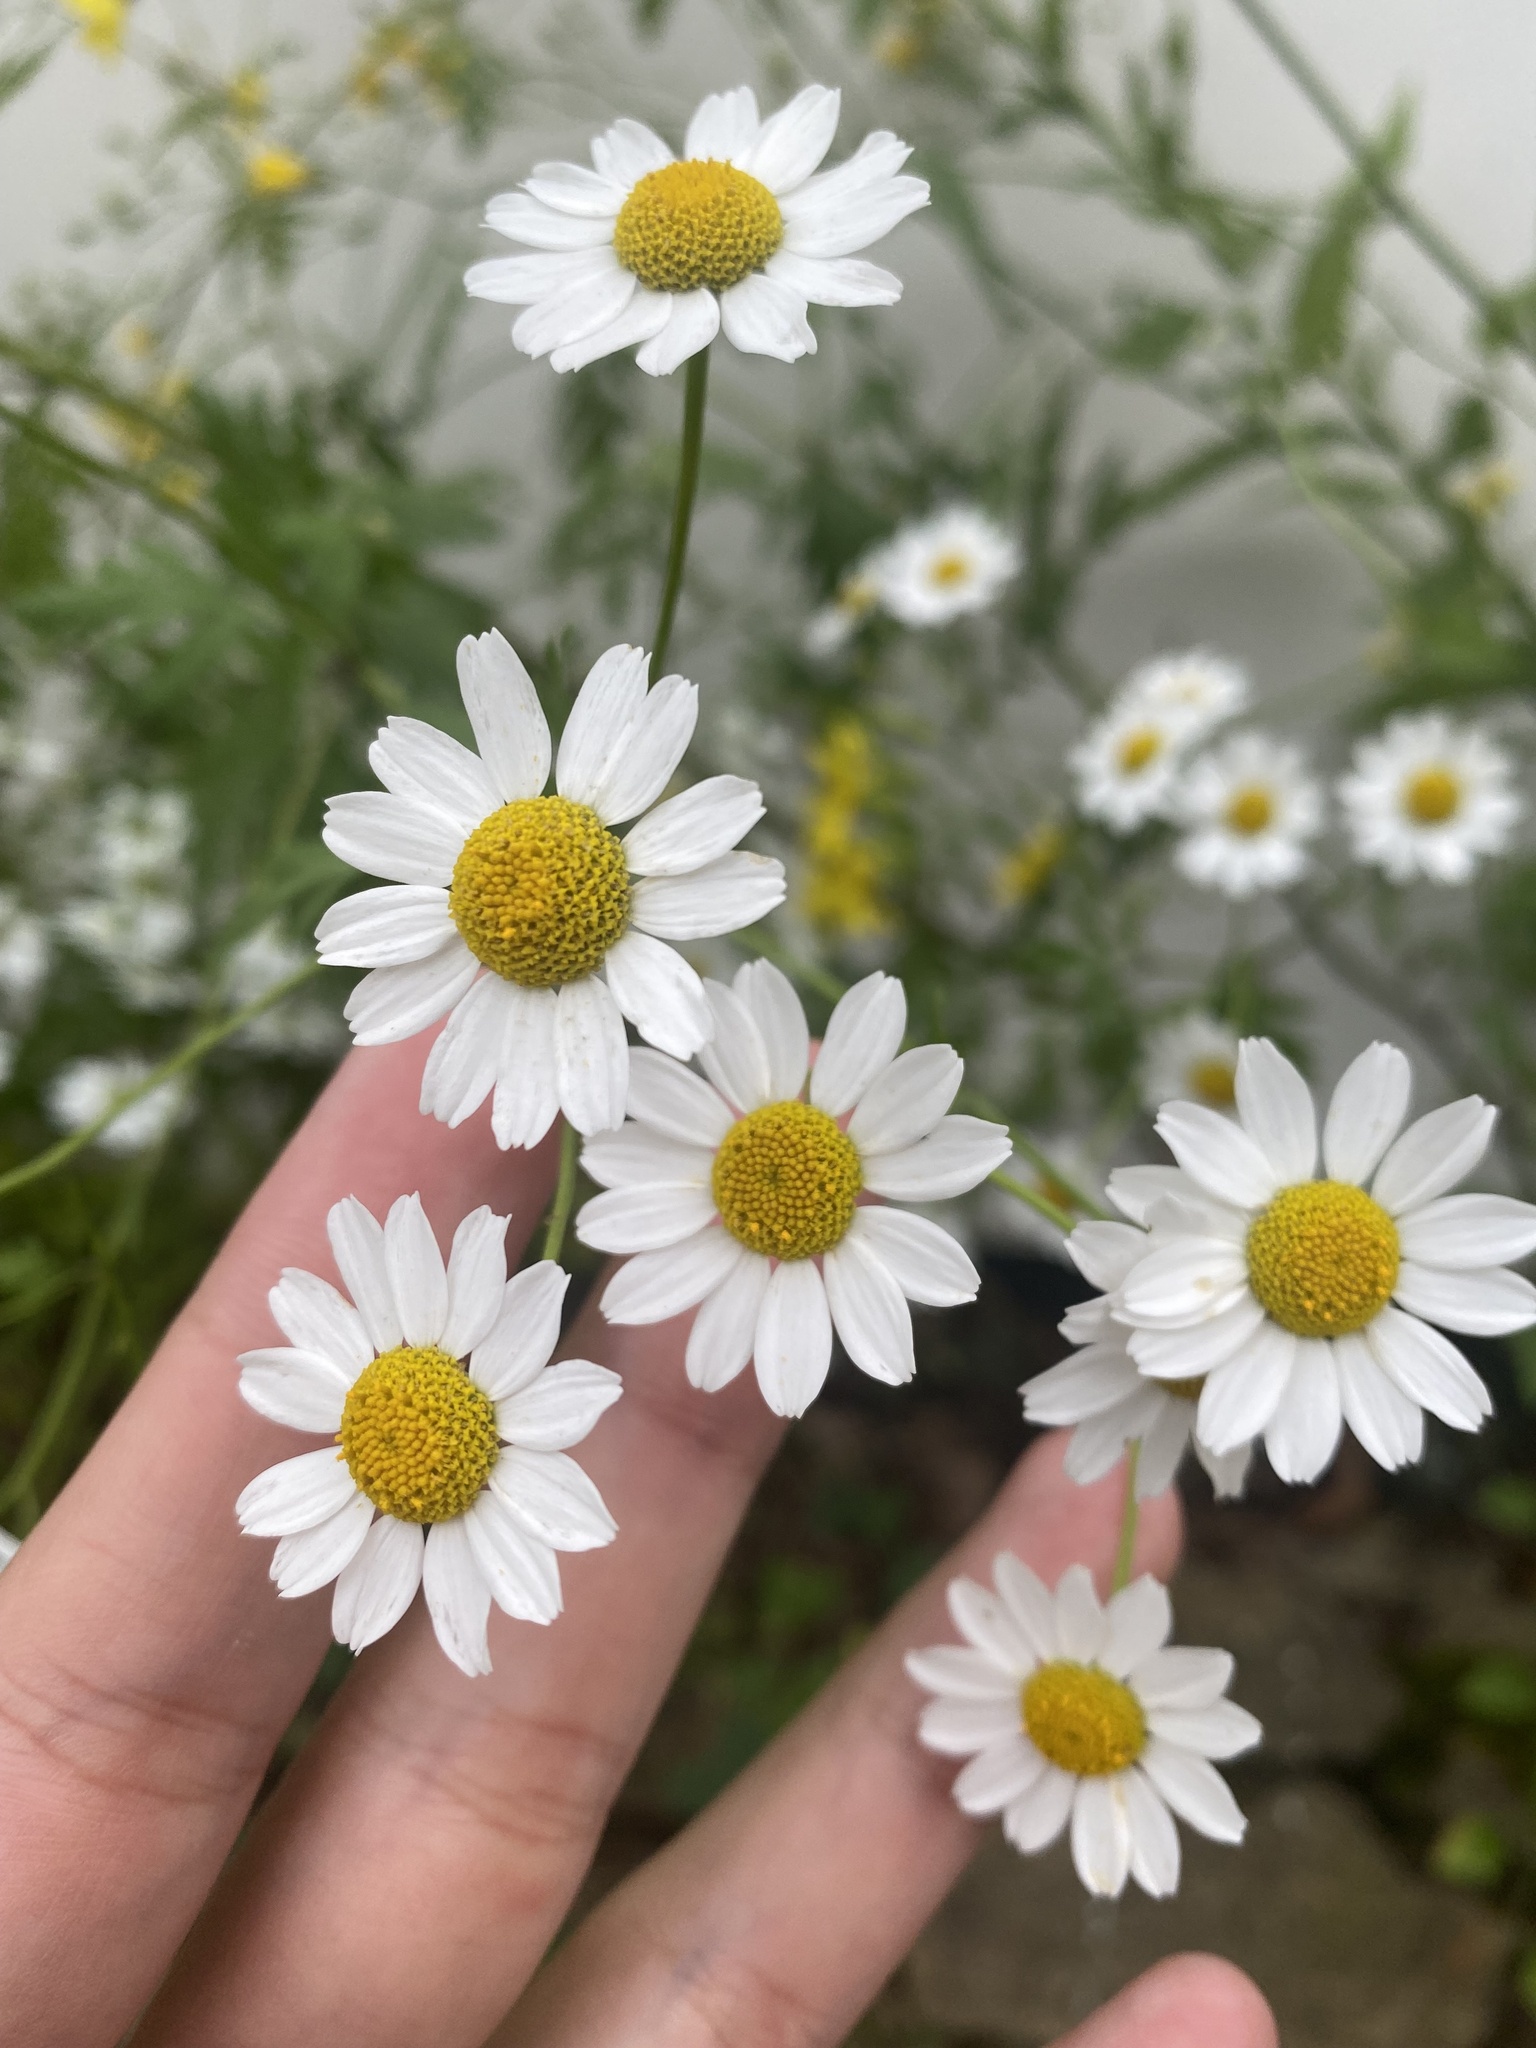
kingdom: Plantae
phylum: Tracheophyta
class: Magnoliopsida
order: Asterales
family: Asteraceae
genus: Tanacetum
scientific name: Tanacetum partheniifolium
